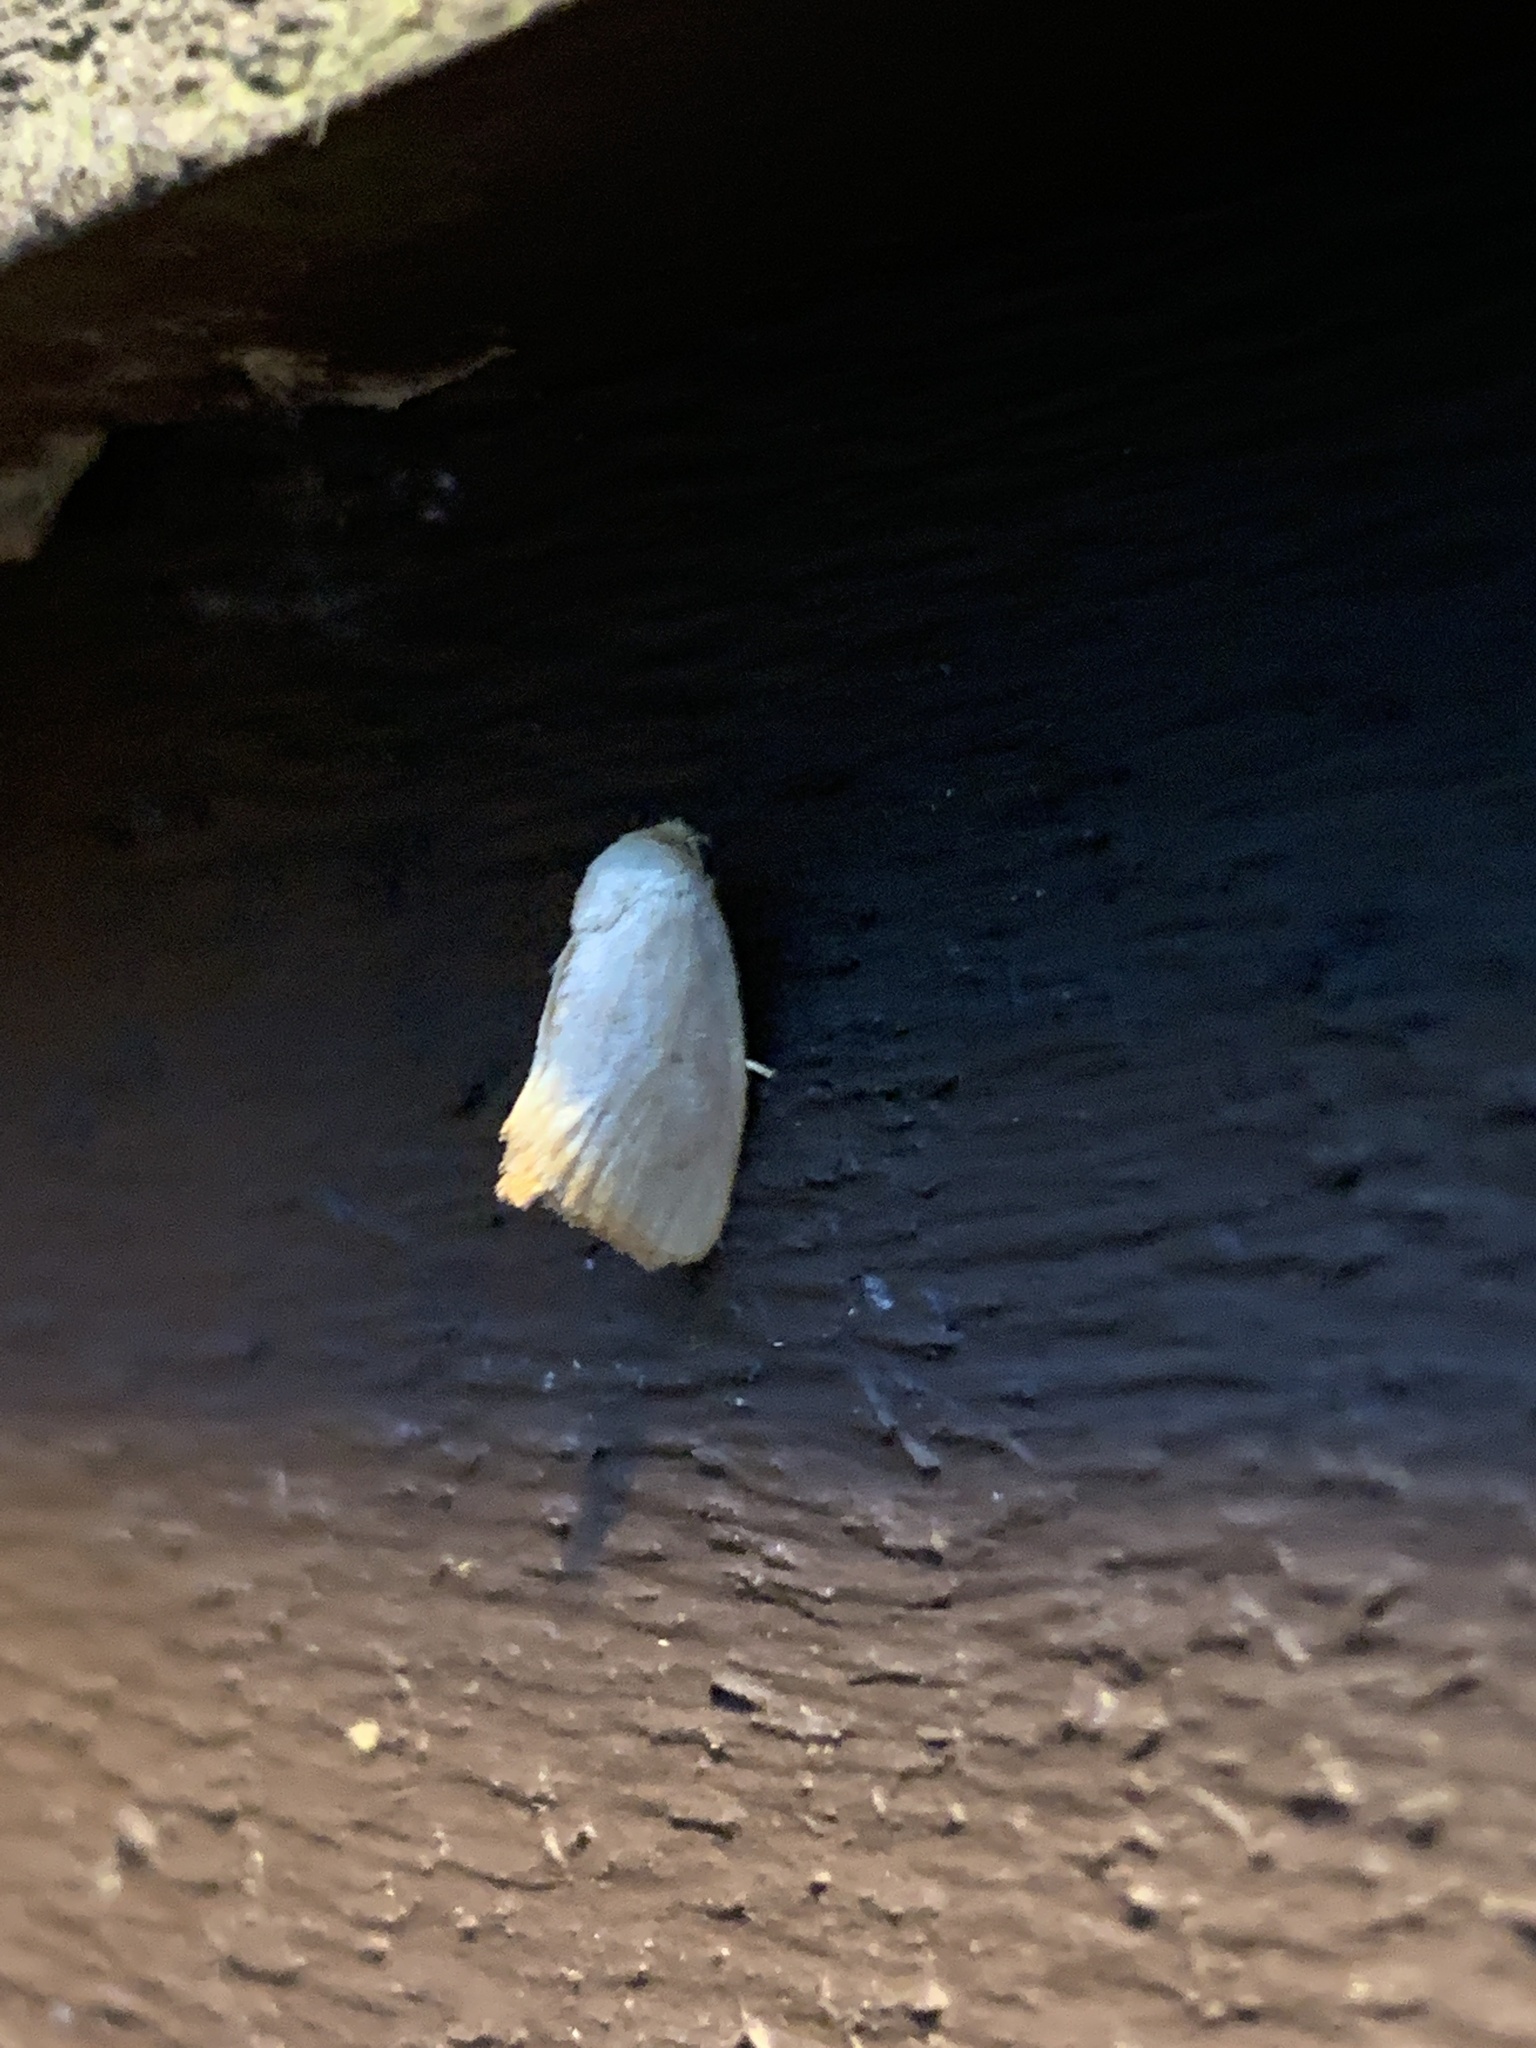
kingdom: Animalia
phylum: Arthropoda
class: Insecta
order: Lepidoptera
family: Limacodidae
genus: Tortricidia
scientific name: Tortricidia pallida
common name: Red-crossed button slug moth
